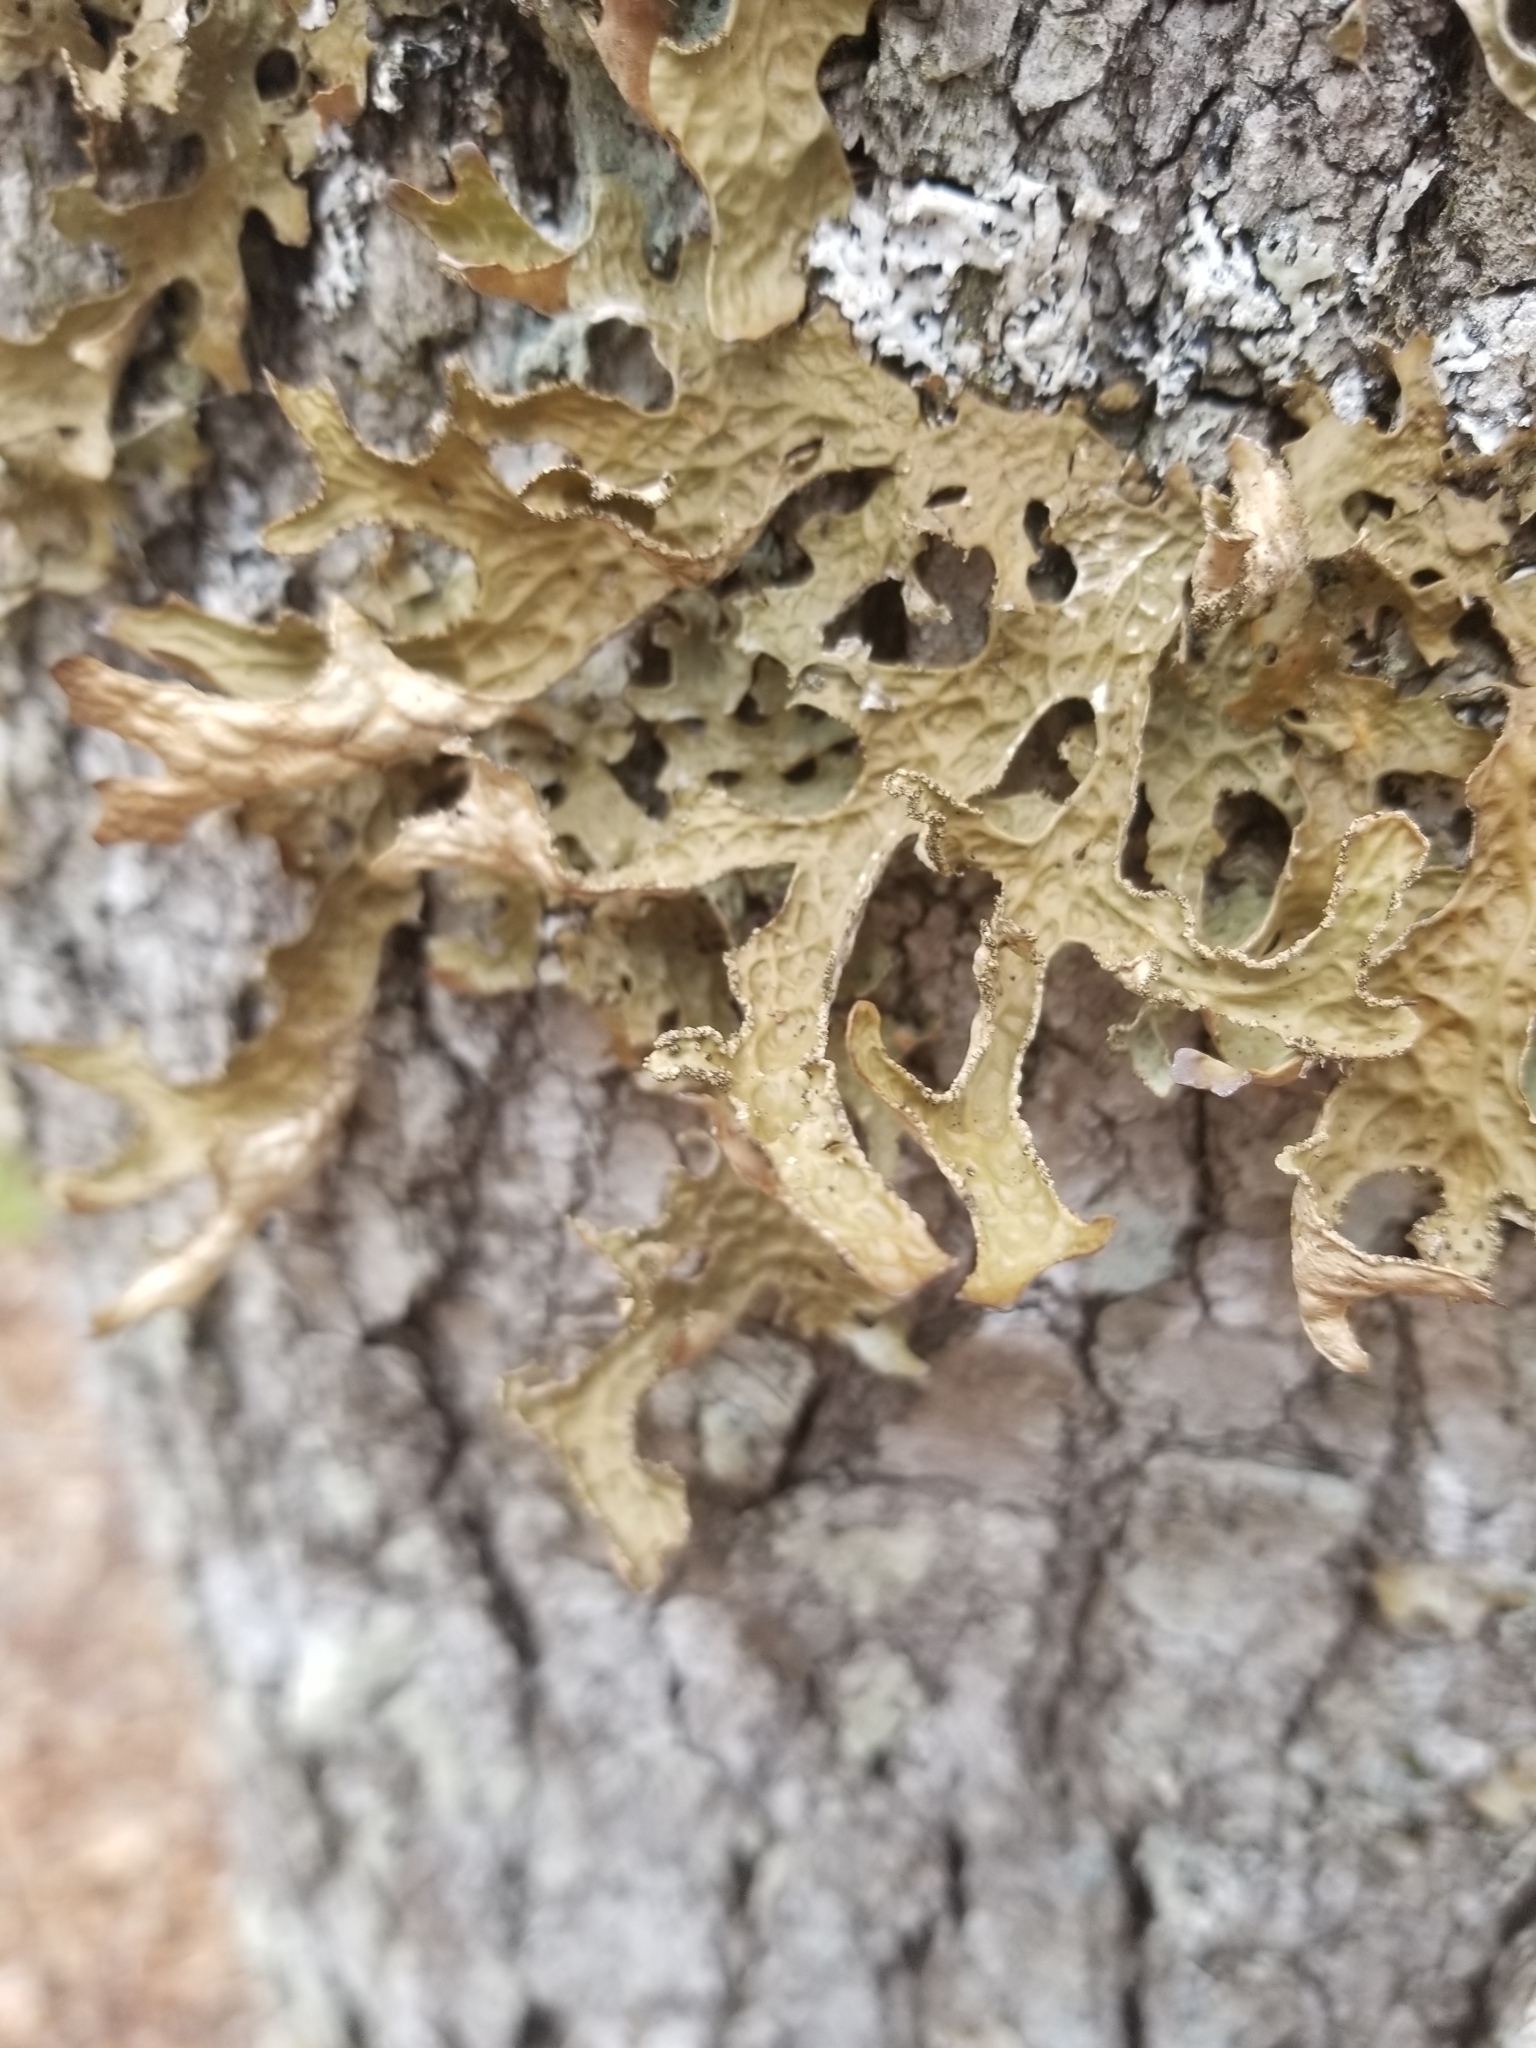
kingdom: Fungi
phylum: Ascomycota
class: Lecanoromycetes
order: Peltigerales
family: Lobariaceae
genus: Lobaria
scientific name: Lobaria pulmonaria
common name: Lungwort
